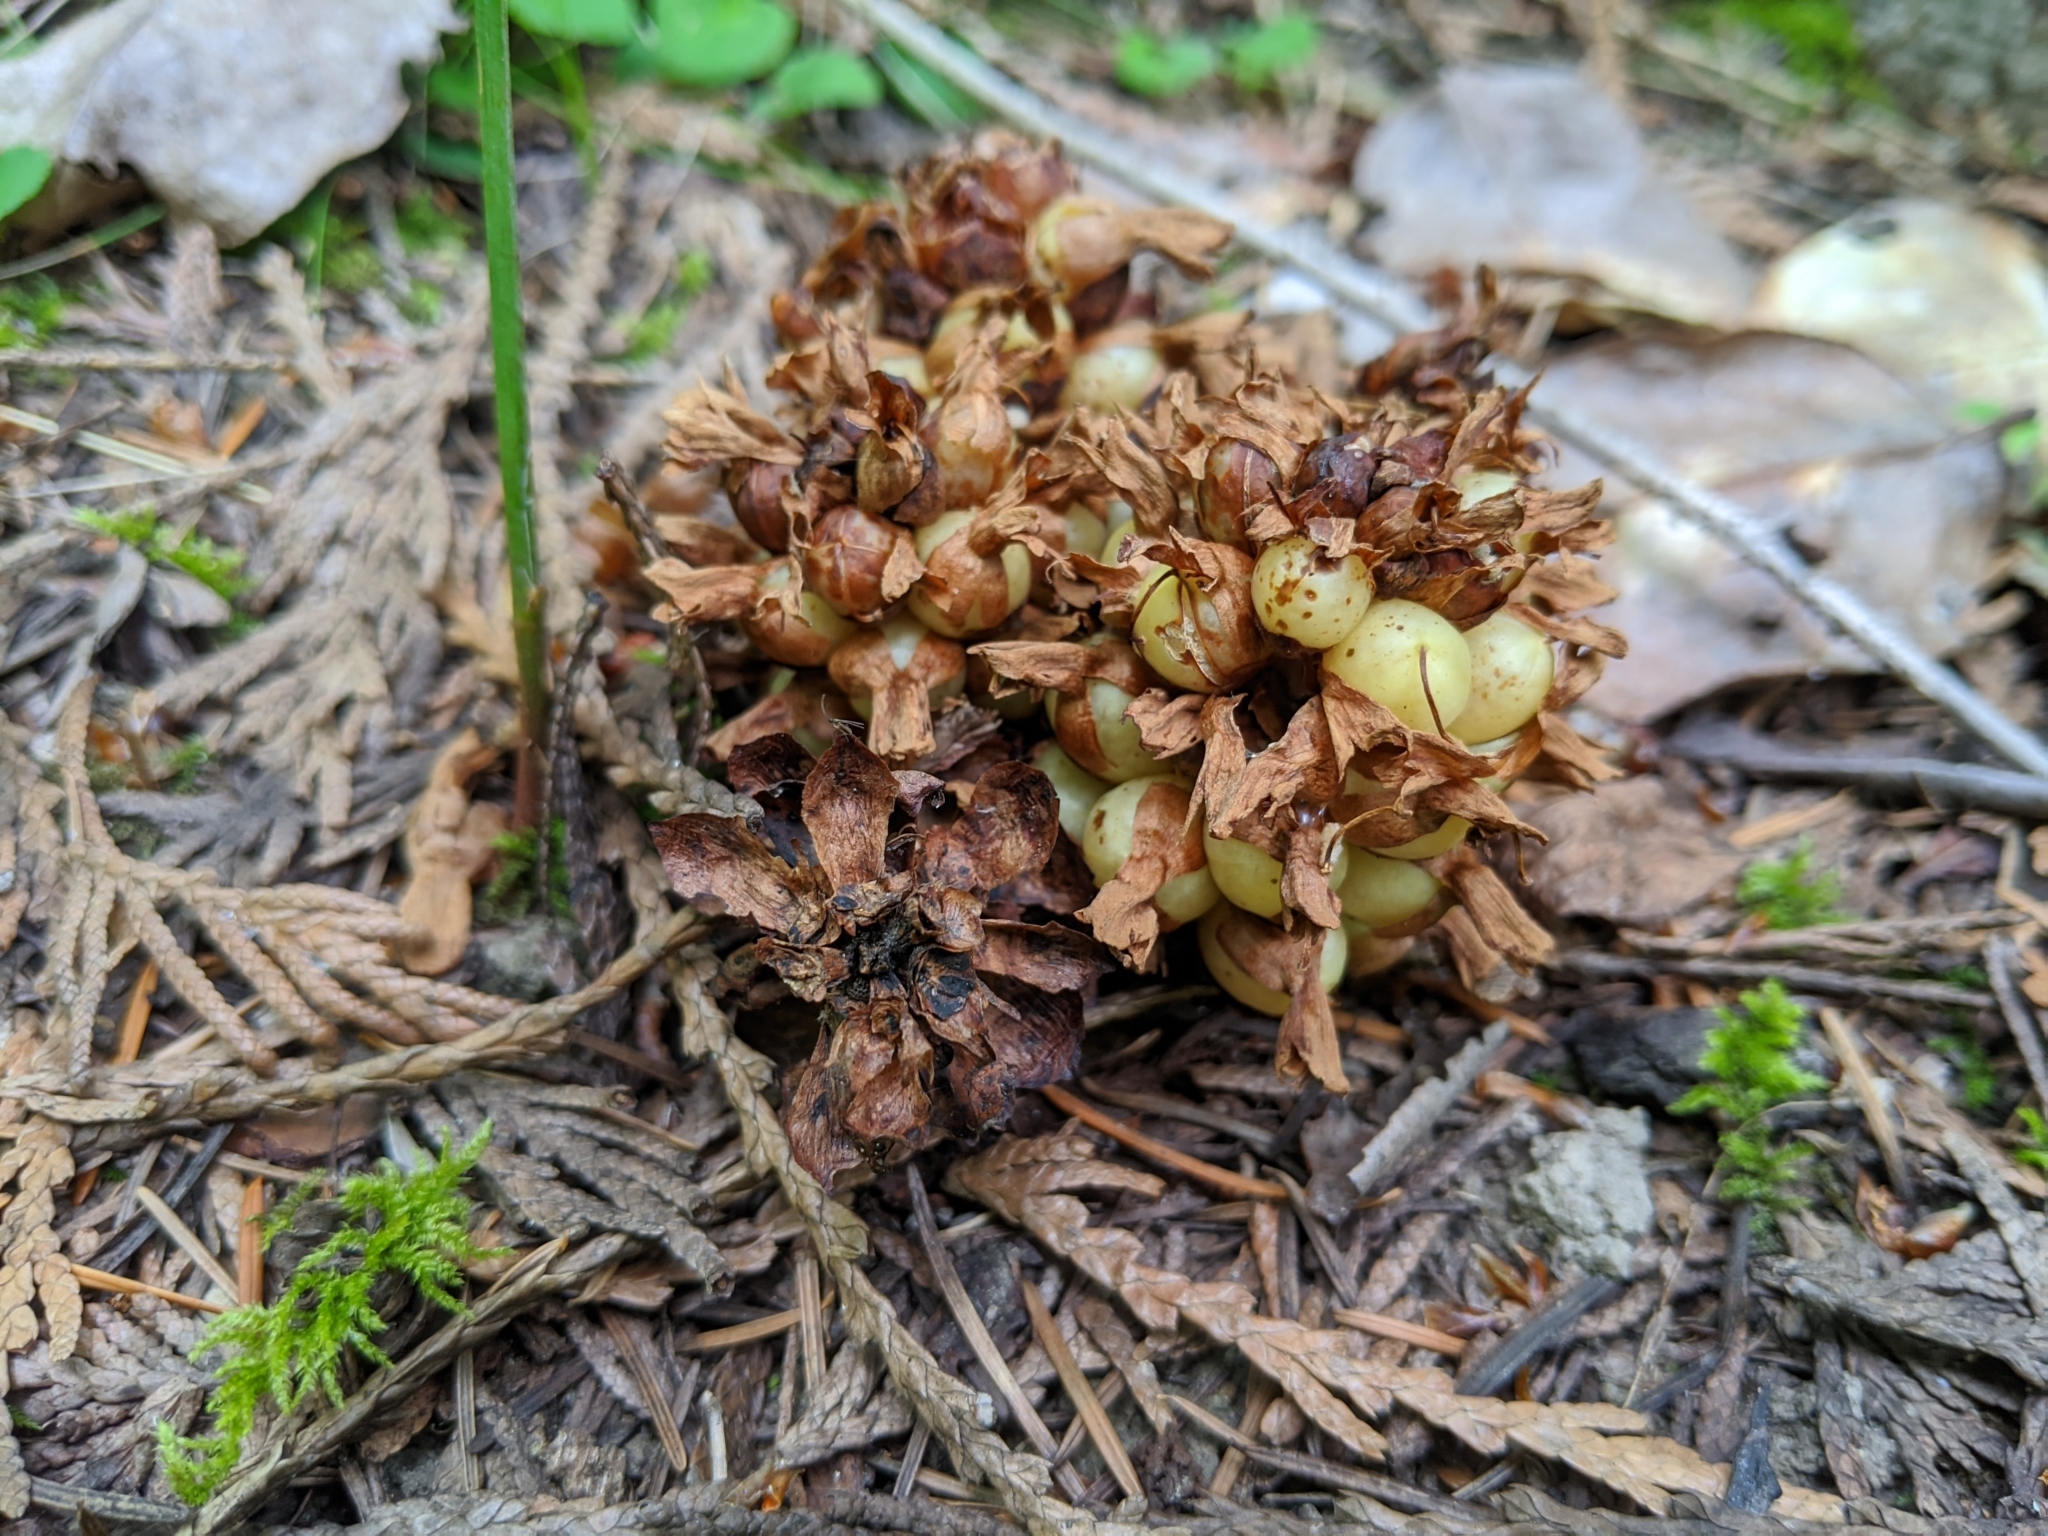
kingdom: Plantae
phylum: Tracheophyta
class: Magnoliopsida
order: Lamiales
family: Orobanchaceae
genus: Kopsiopsis
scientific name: Kopsiopsis hookeri
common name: Hooker's groundcone
